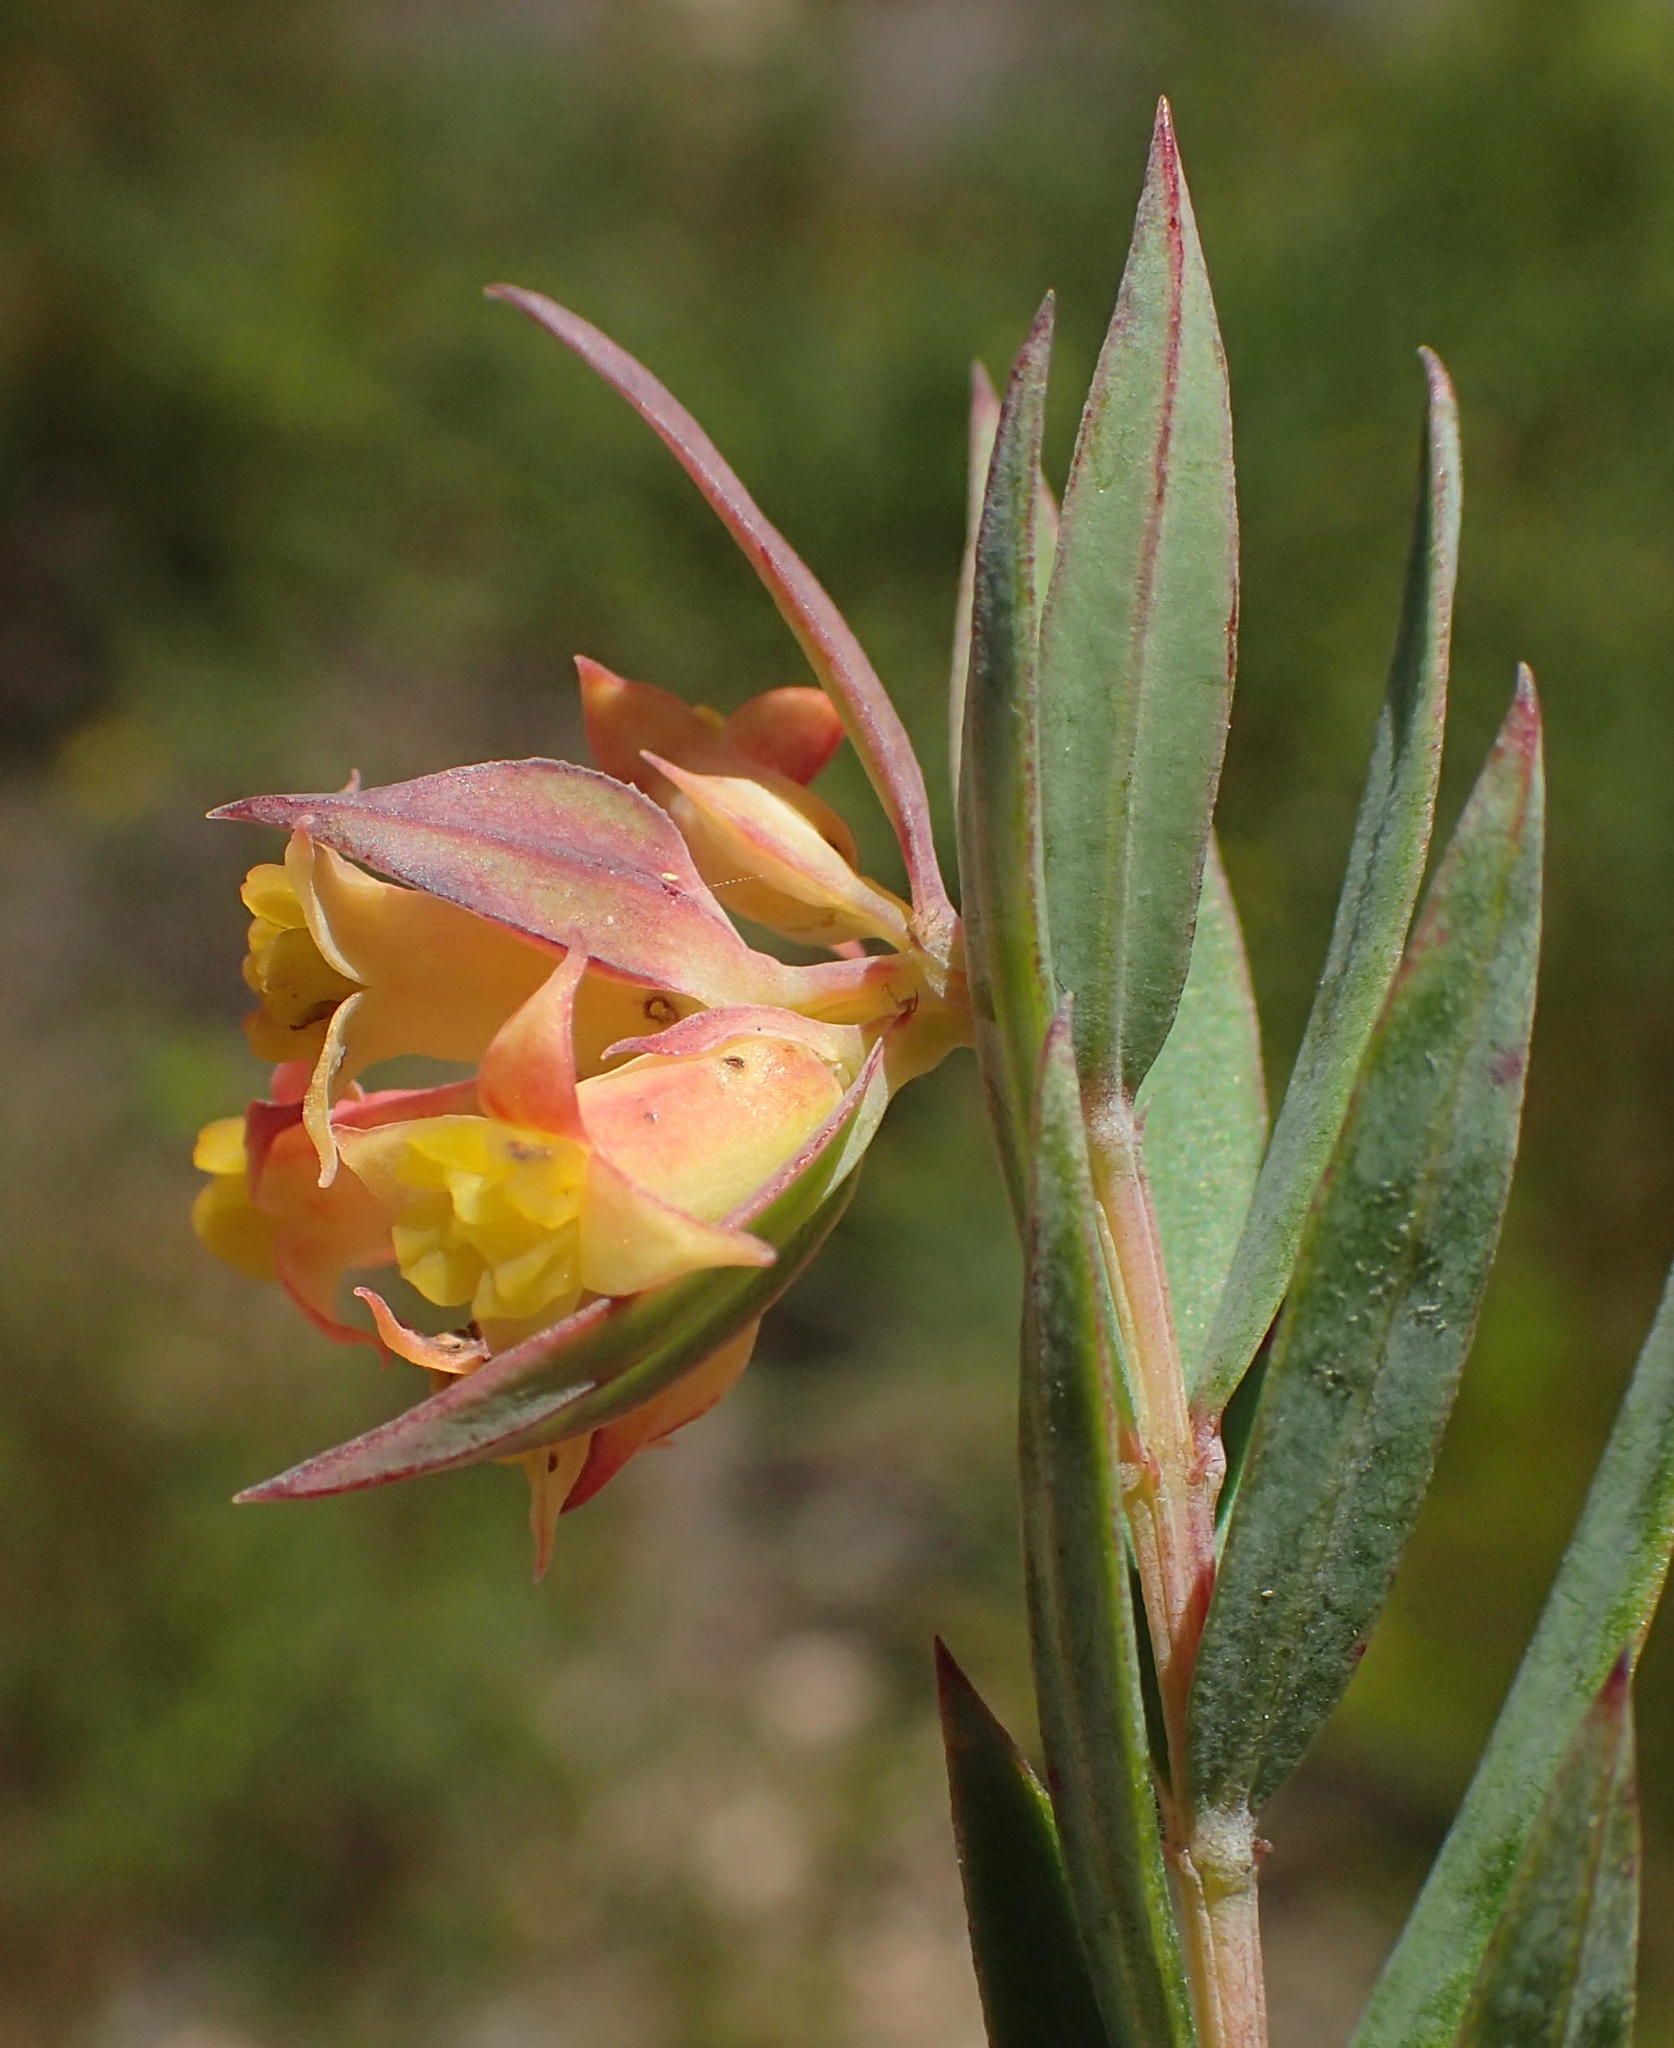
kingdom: Plantae
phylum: Tracheophyta
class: Magnoliopsida
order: Myrtales
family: Penaeaceae
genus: Penaea
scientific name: Penaea acutifolia
